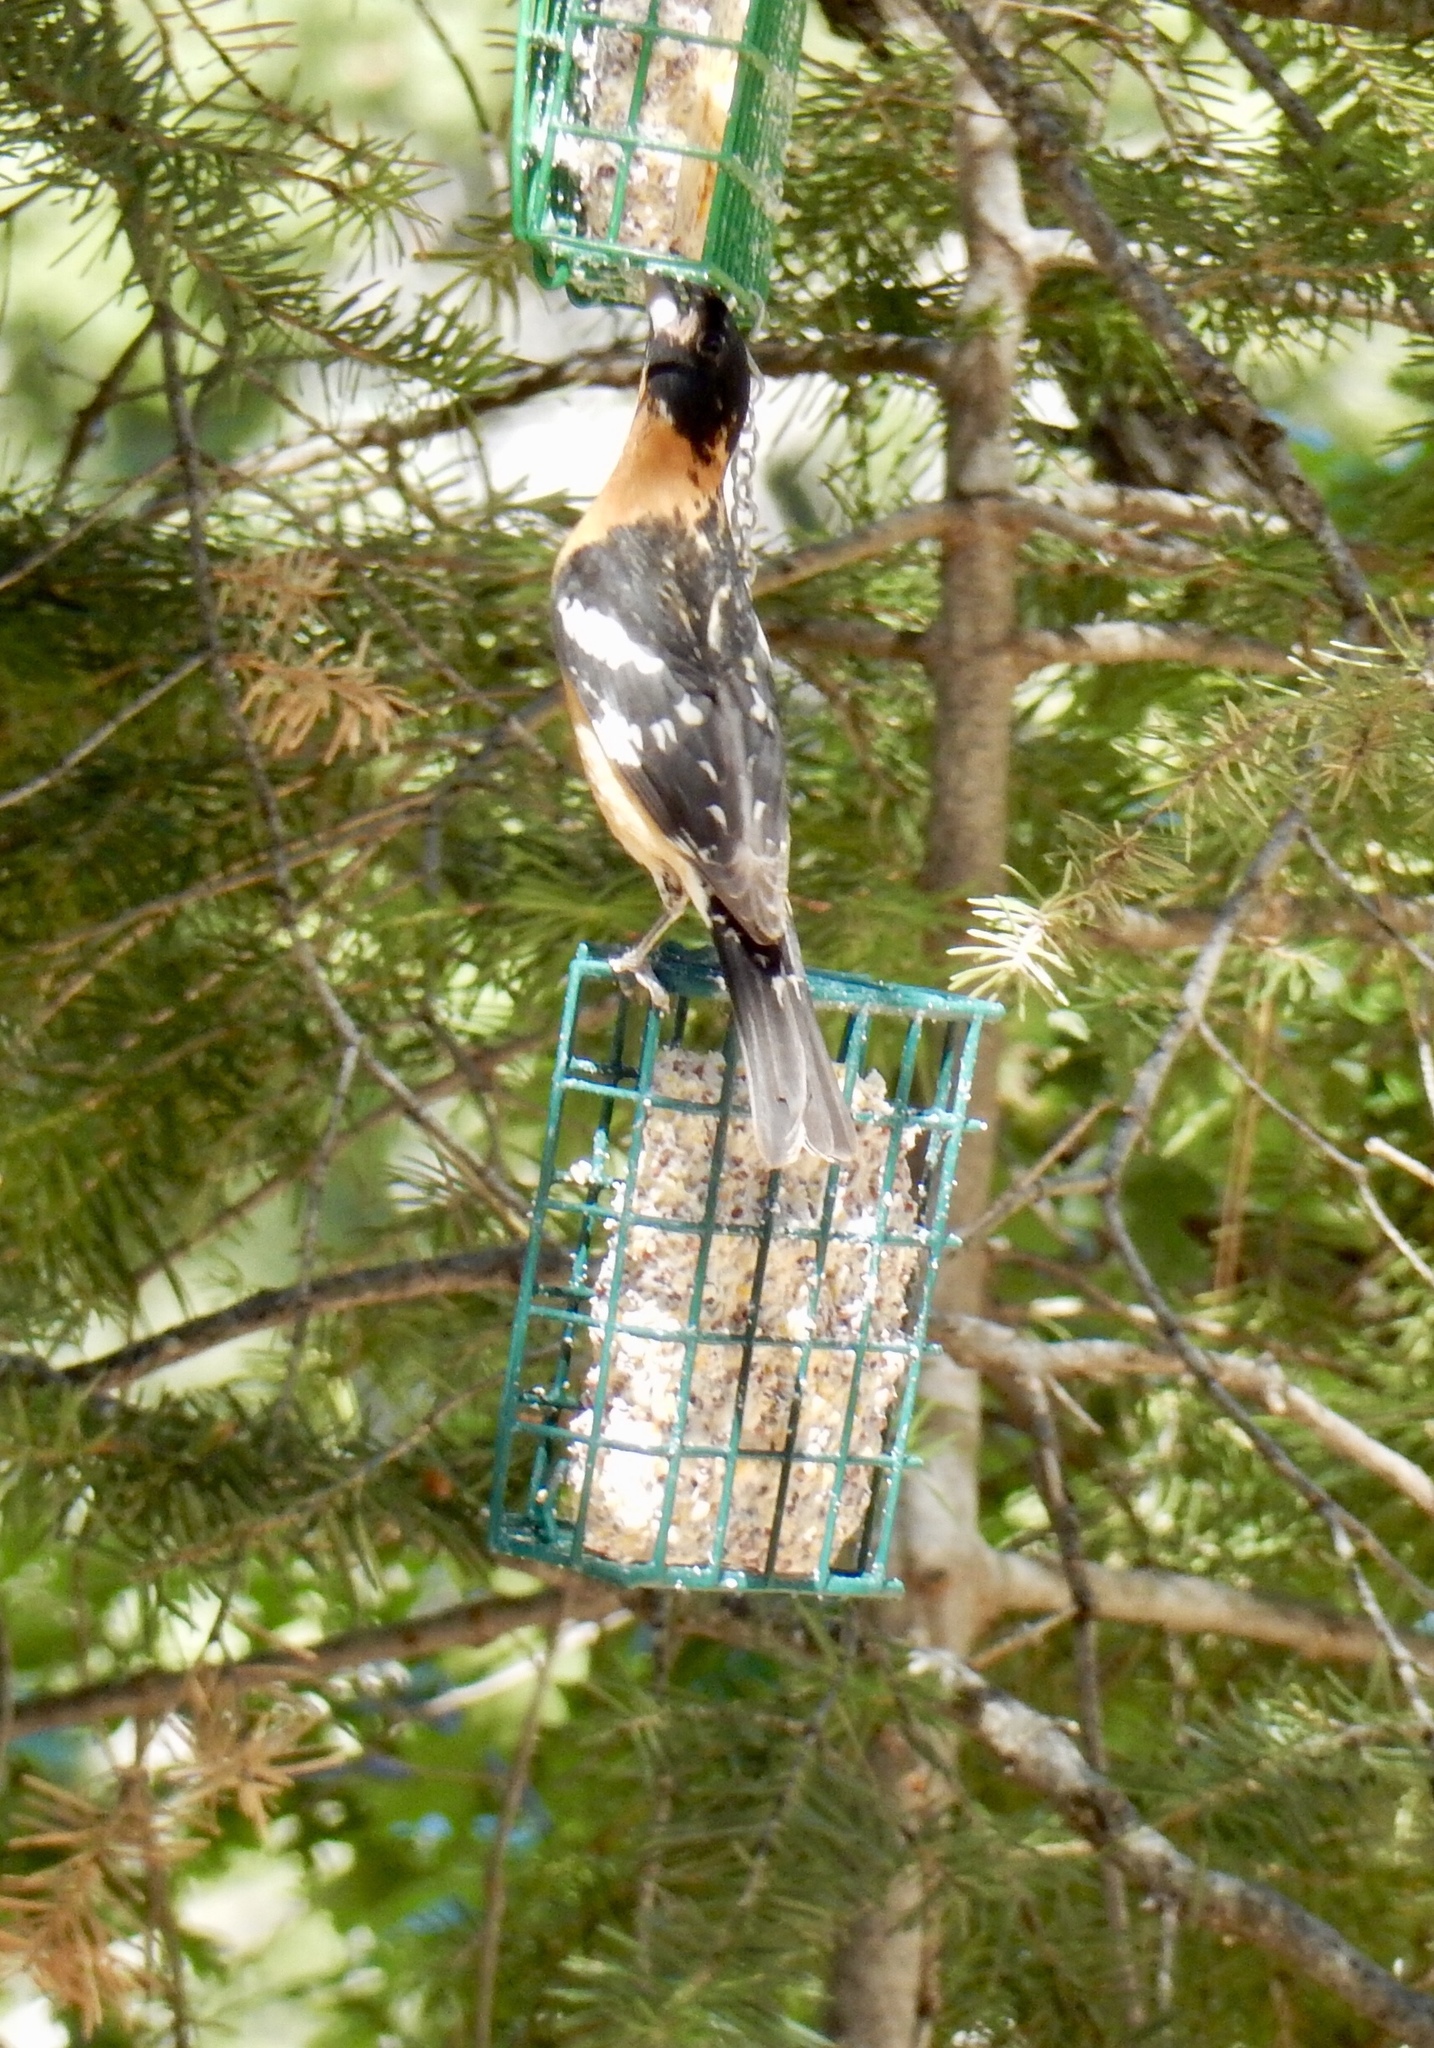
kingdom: Animalia
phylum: Chordata
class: Aves
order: Passeriformes
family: Cardinalidae
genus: Pheucticus
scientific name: Pheucticus melanocephalus
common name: Black-headed grosbeak
